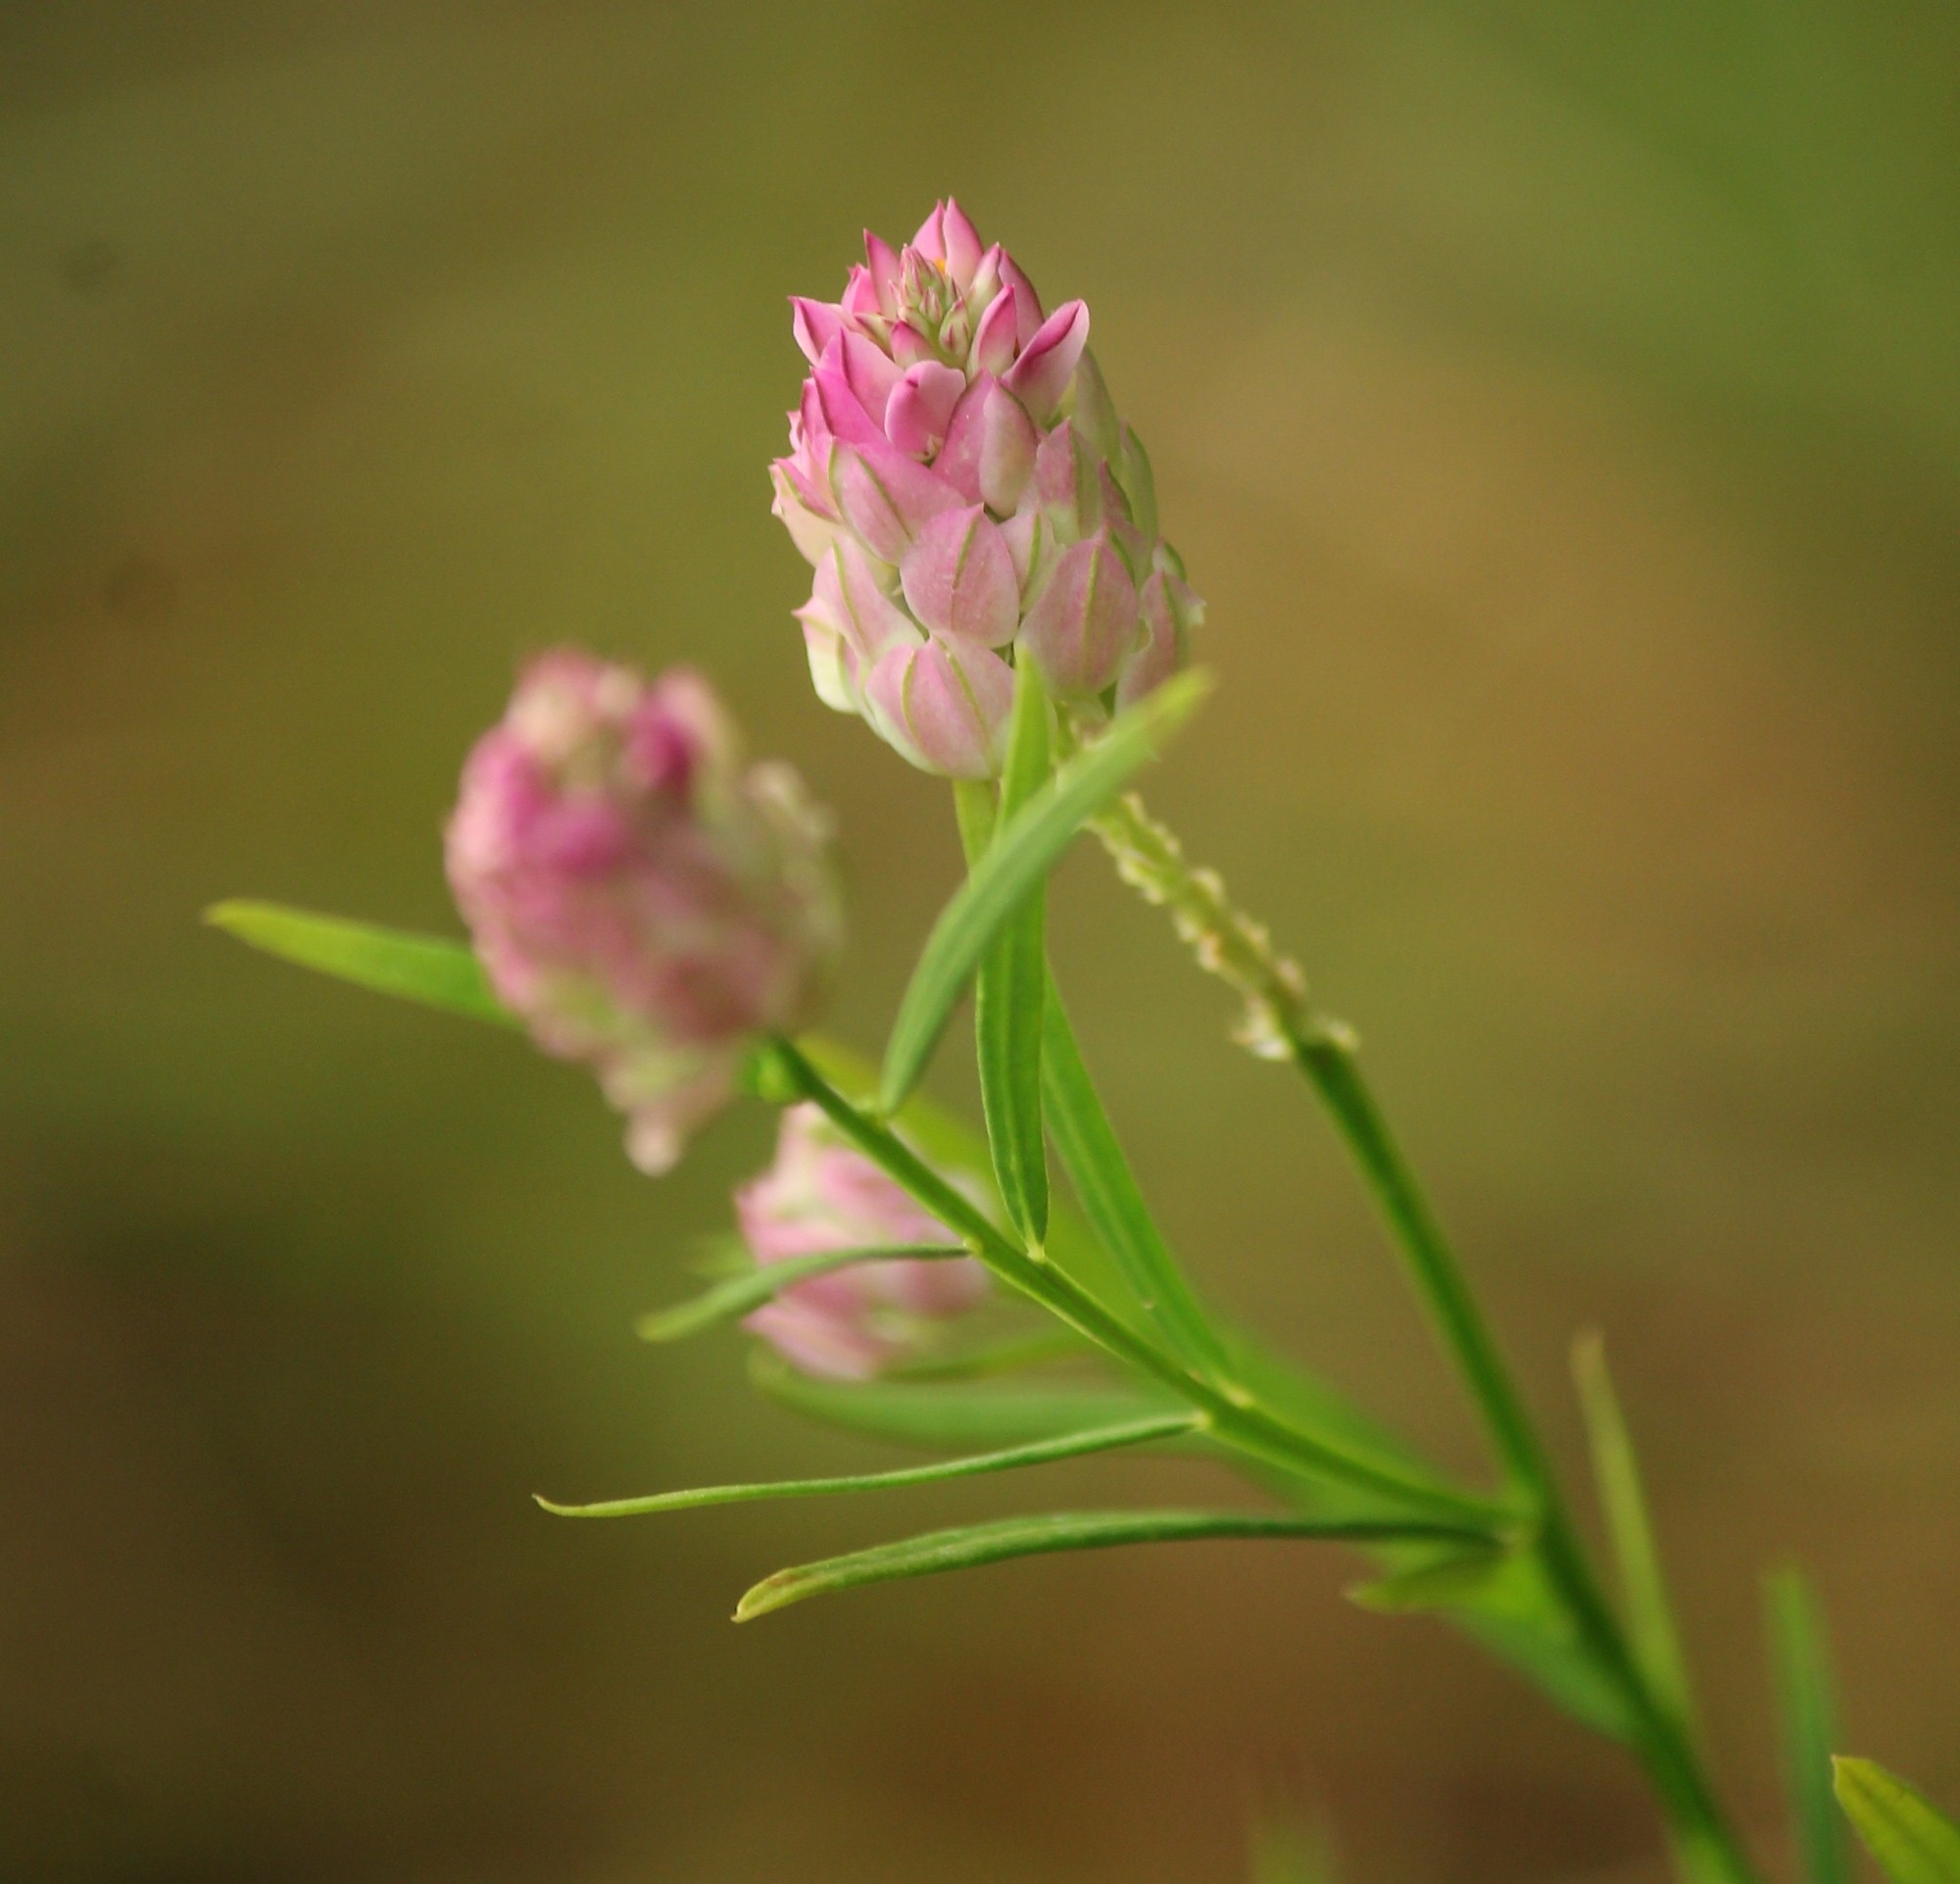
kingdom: Plantae
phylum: Tracheophyta
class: Magnoliopsida
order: Fabales
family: Polygalaceae
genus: Polygala
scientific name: Polygala sanguinea
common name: Blood milkwort
